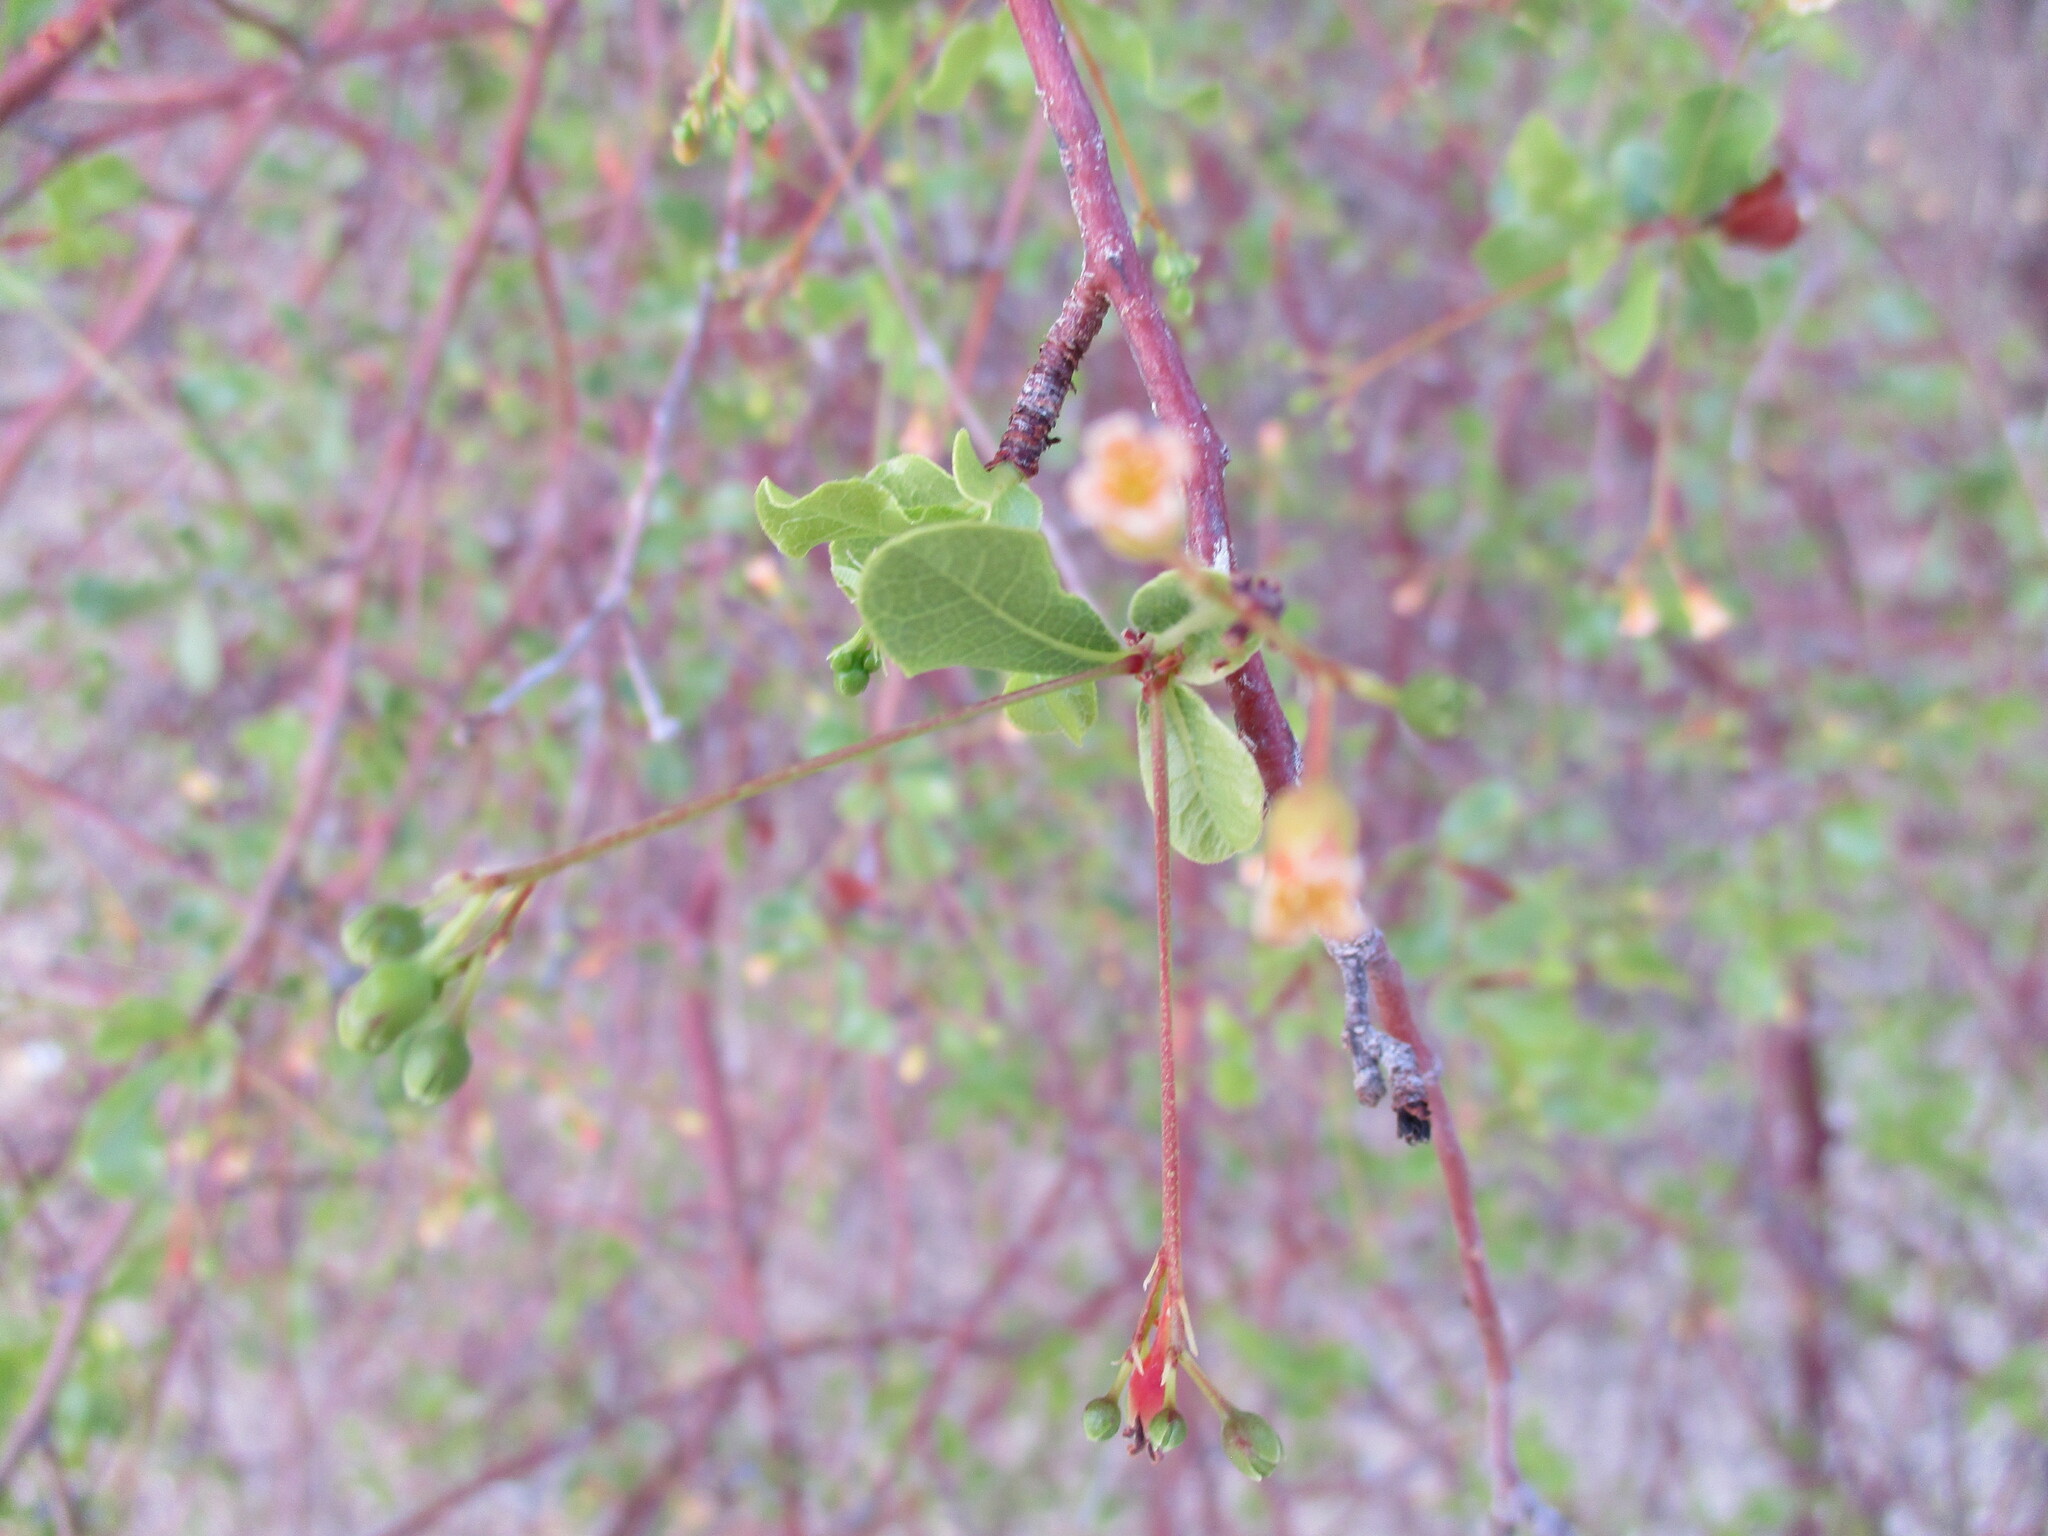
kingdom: Plantae
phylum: Tracheophyta
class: Magnoliopsida
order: Sapindales
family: Burseraceae
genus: Commiphora
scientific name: Commiphora glaucescens
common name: Blue-leaved corkwood
